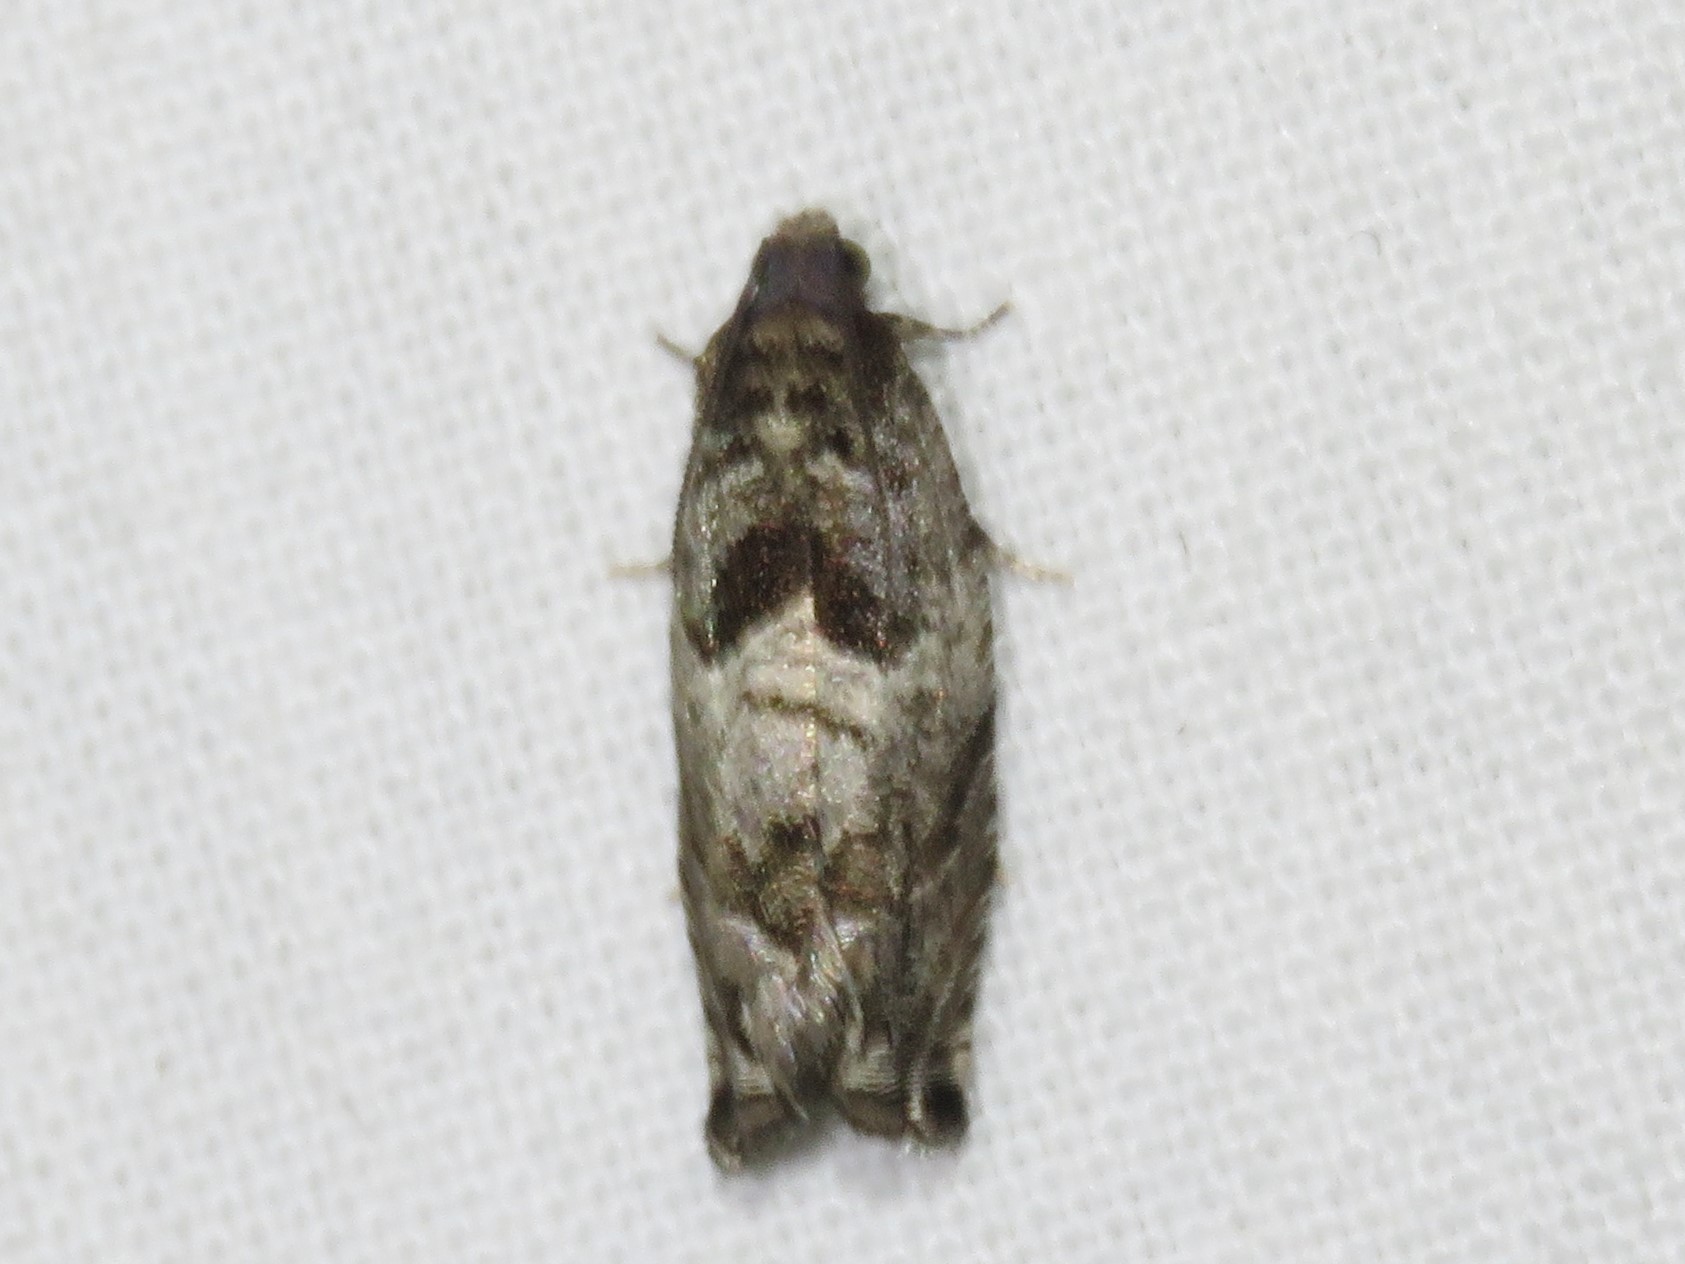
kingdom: Animalia
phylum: Arthropoda
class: Insecta
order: Lepidoptera
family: Tortricidae
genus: Gypsonoma
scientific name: Gypsonoma haimbachiana
